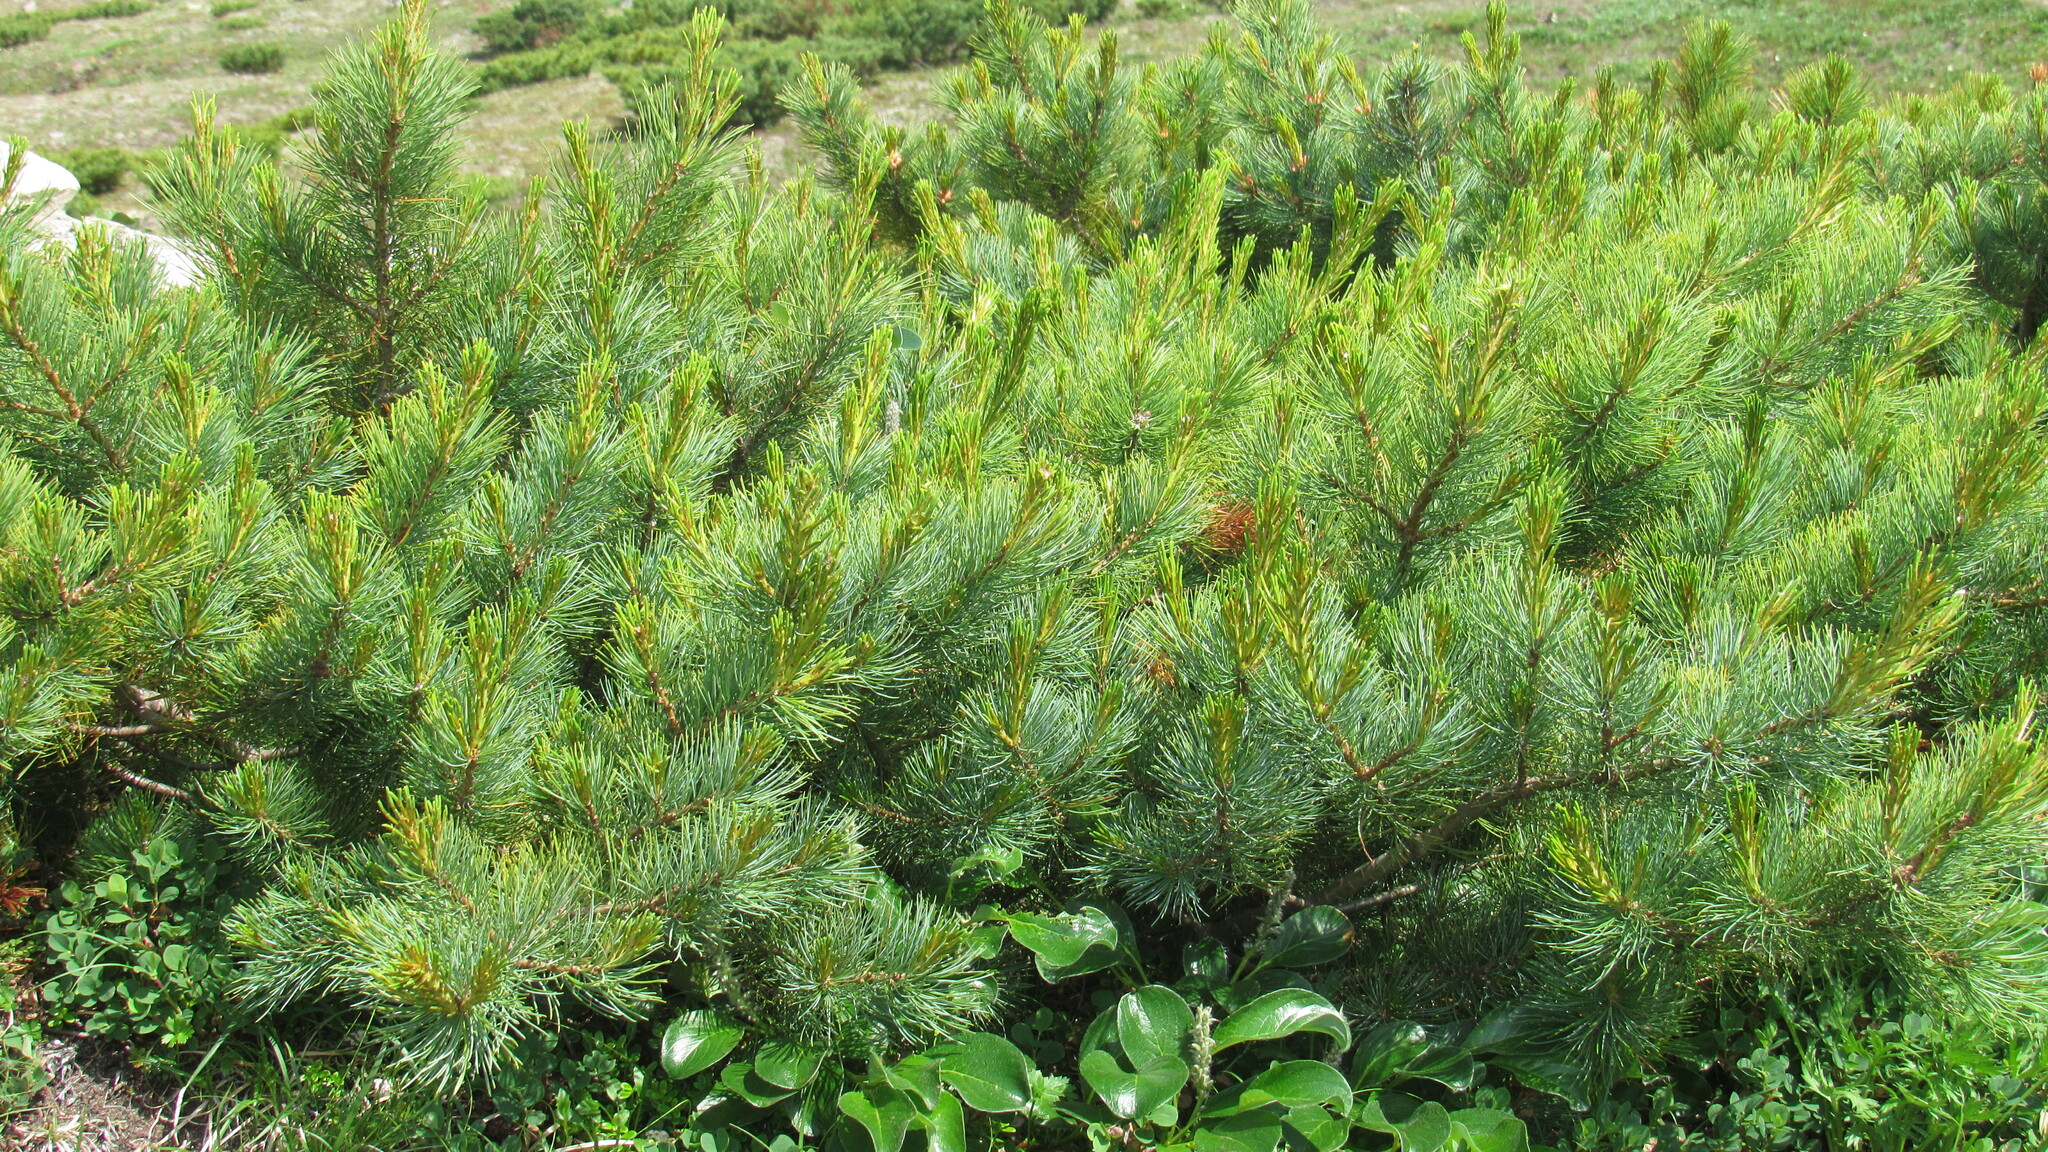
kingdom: Plantae
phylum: Tracheophyta
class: Pinopsida
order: Pinales
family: Pinaceae
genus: Pinus
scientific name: Pinus pumila
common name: Dwarf siberian pine
